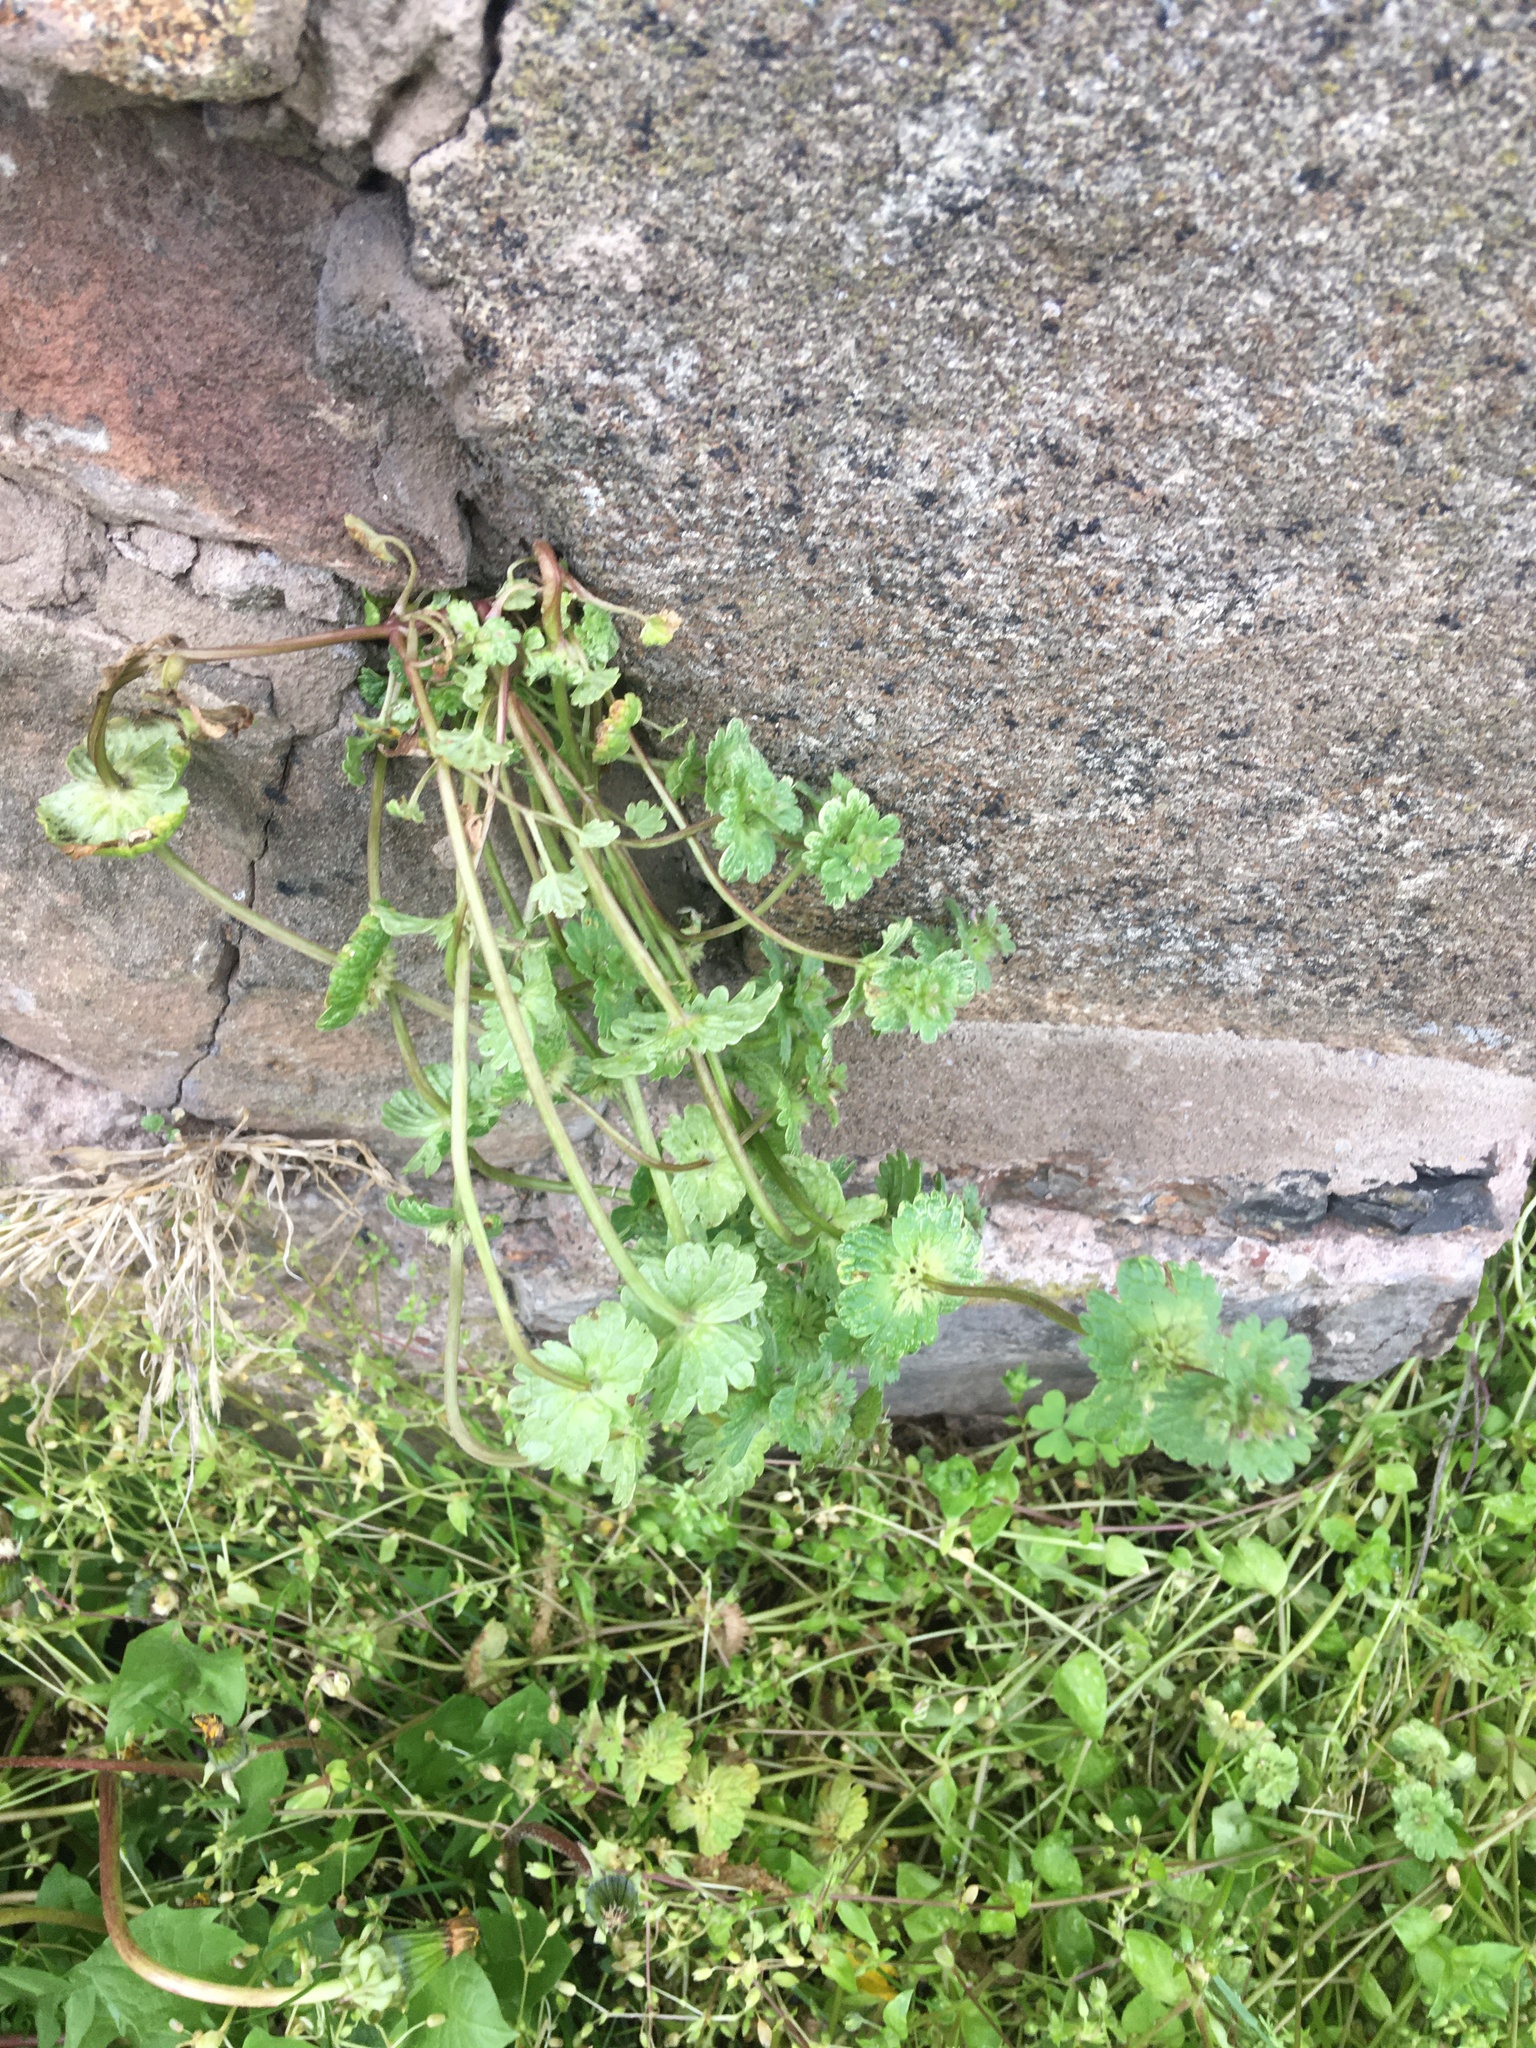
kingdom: Plantae
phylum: Tracheophyta
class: Magnoliopsida
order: Lamiales
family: Lamiaceae
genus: Lamium
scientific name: Lamium amplexicaule
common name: Henbit dead-nettle
